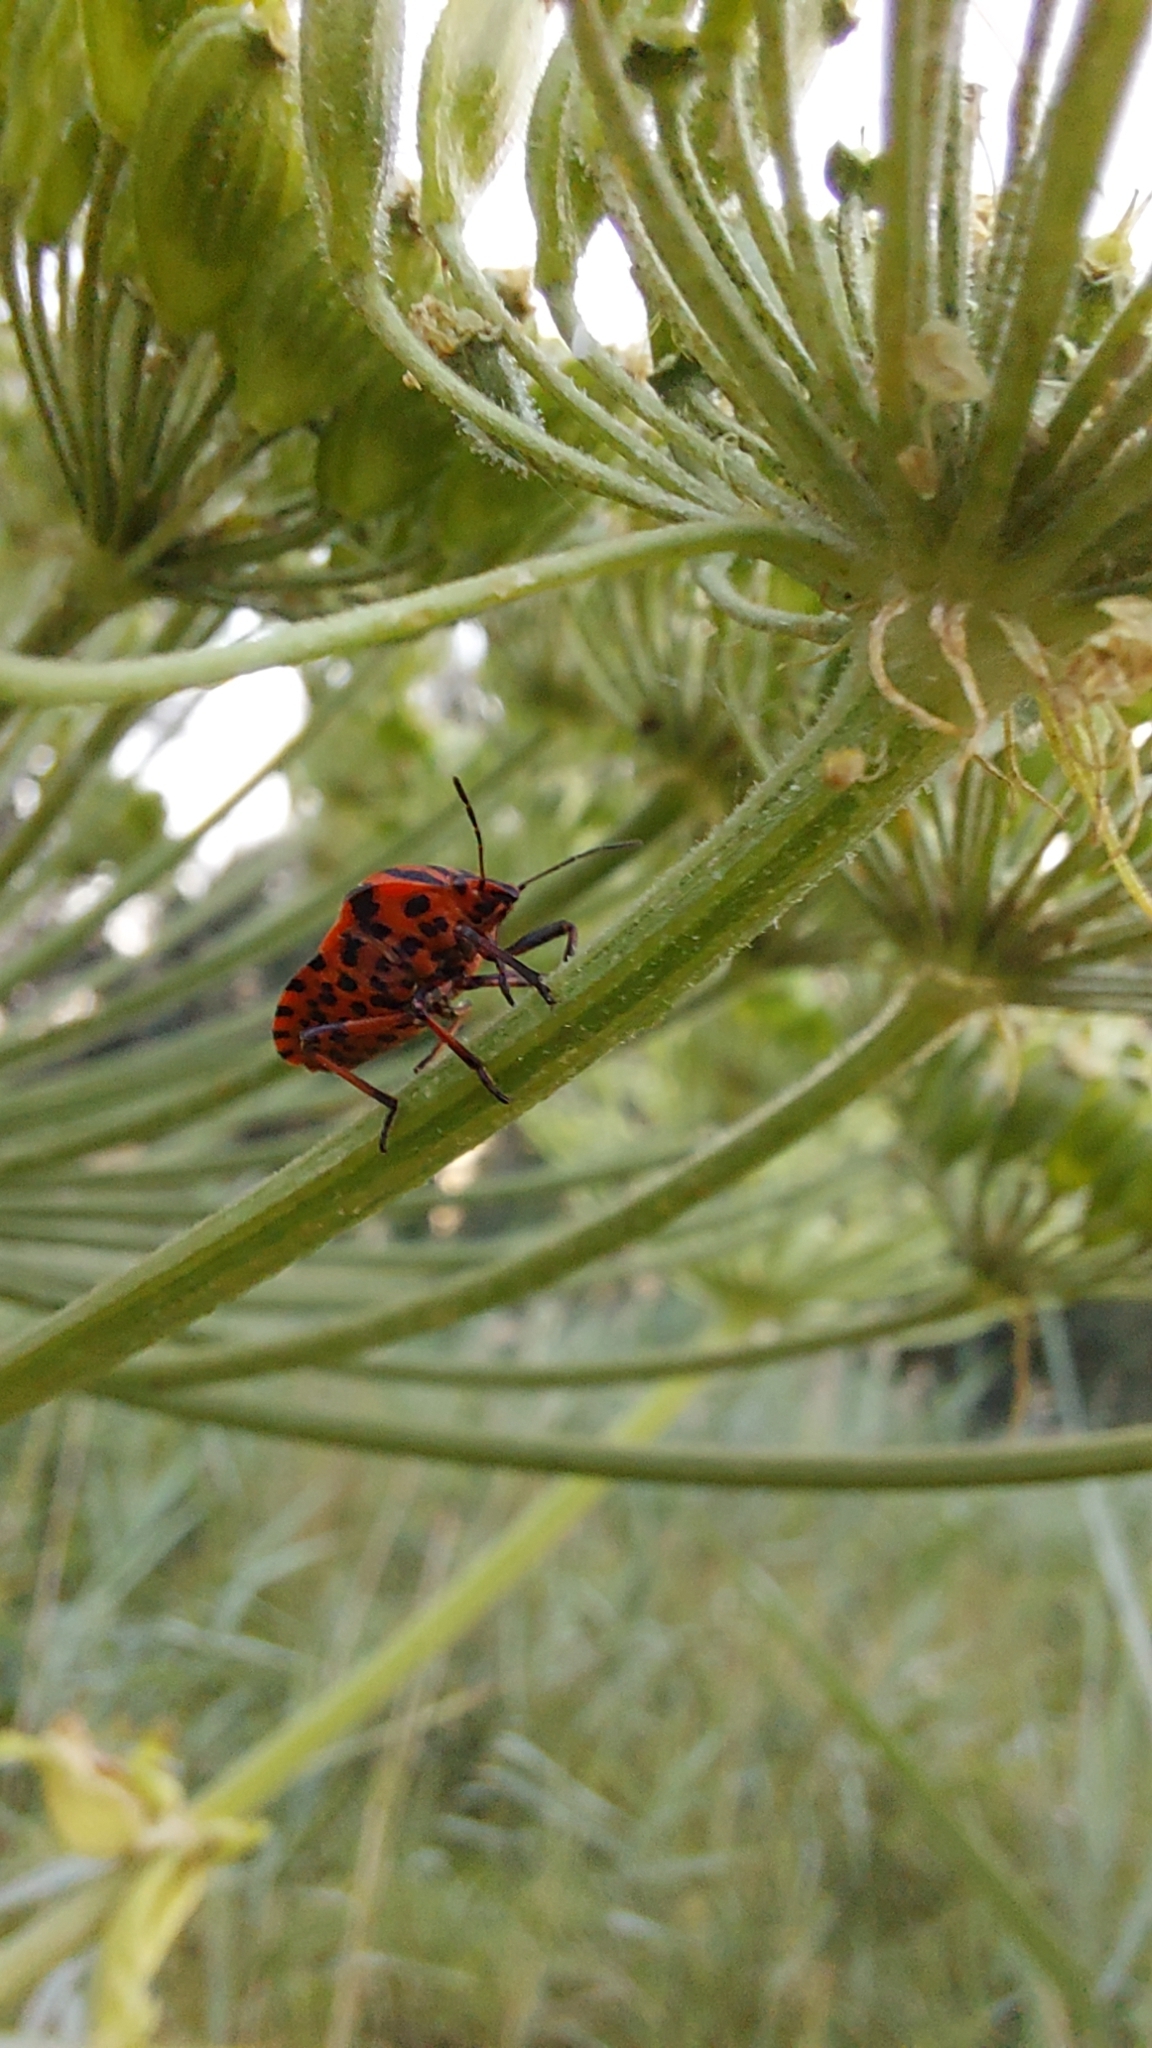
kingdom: Animalia
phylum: Arthropoda
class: Insecta
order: Hemiptera
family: Pentatomidae
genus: Graphosoma
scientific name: Graphosoma italicum
